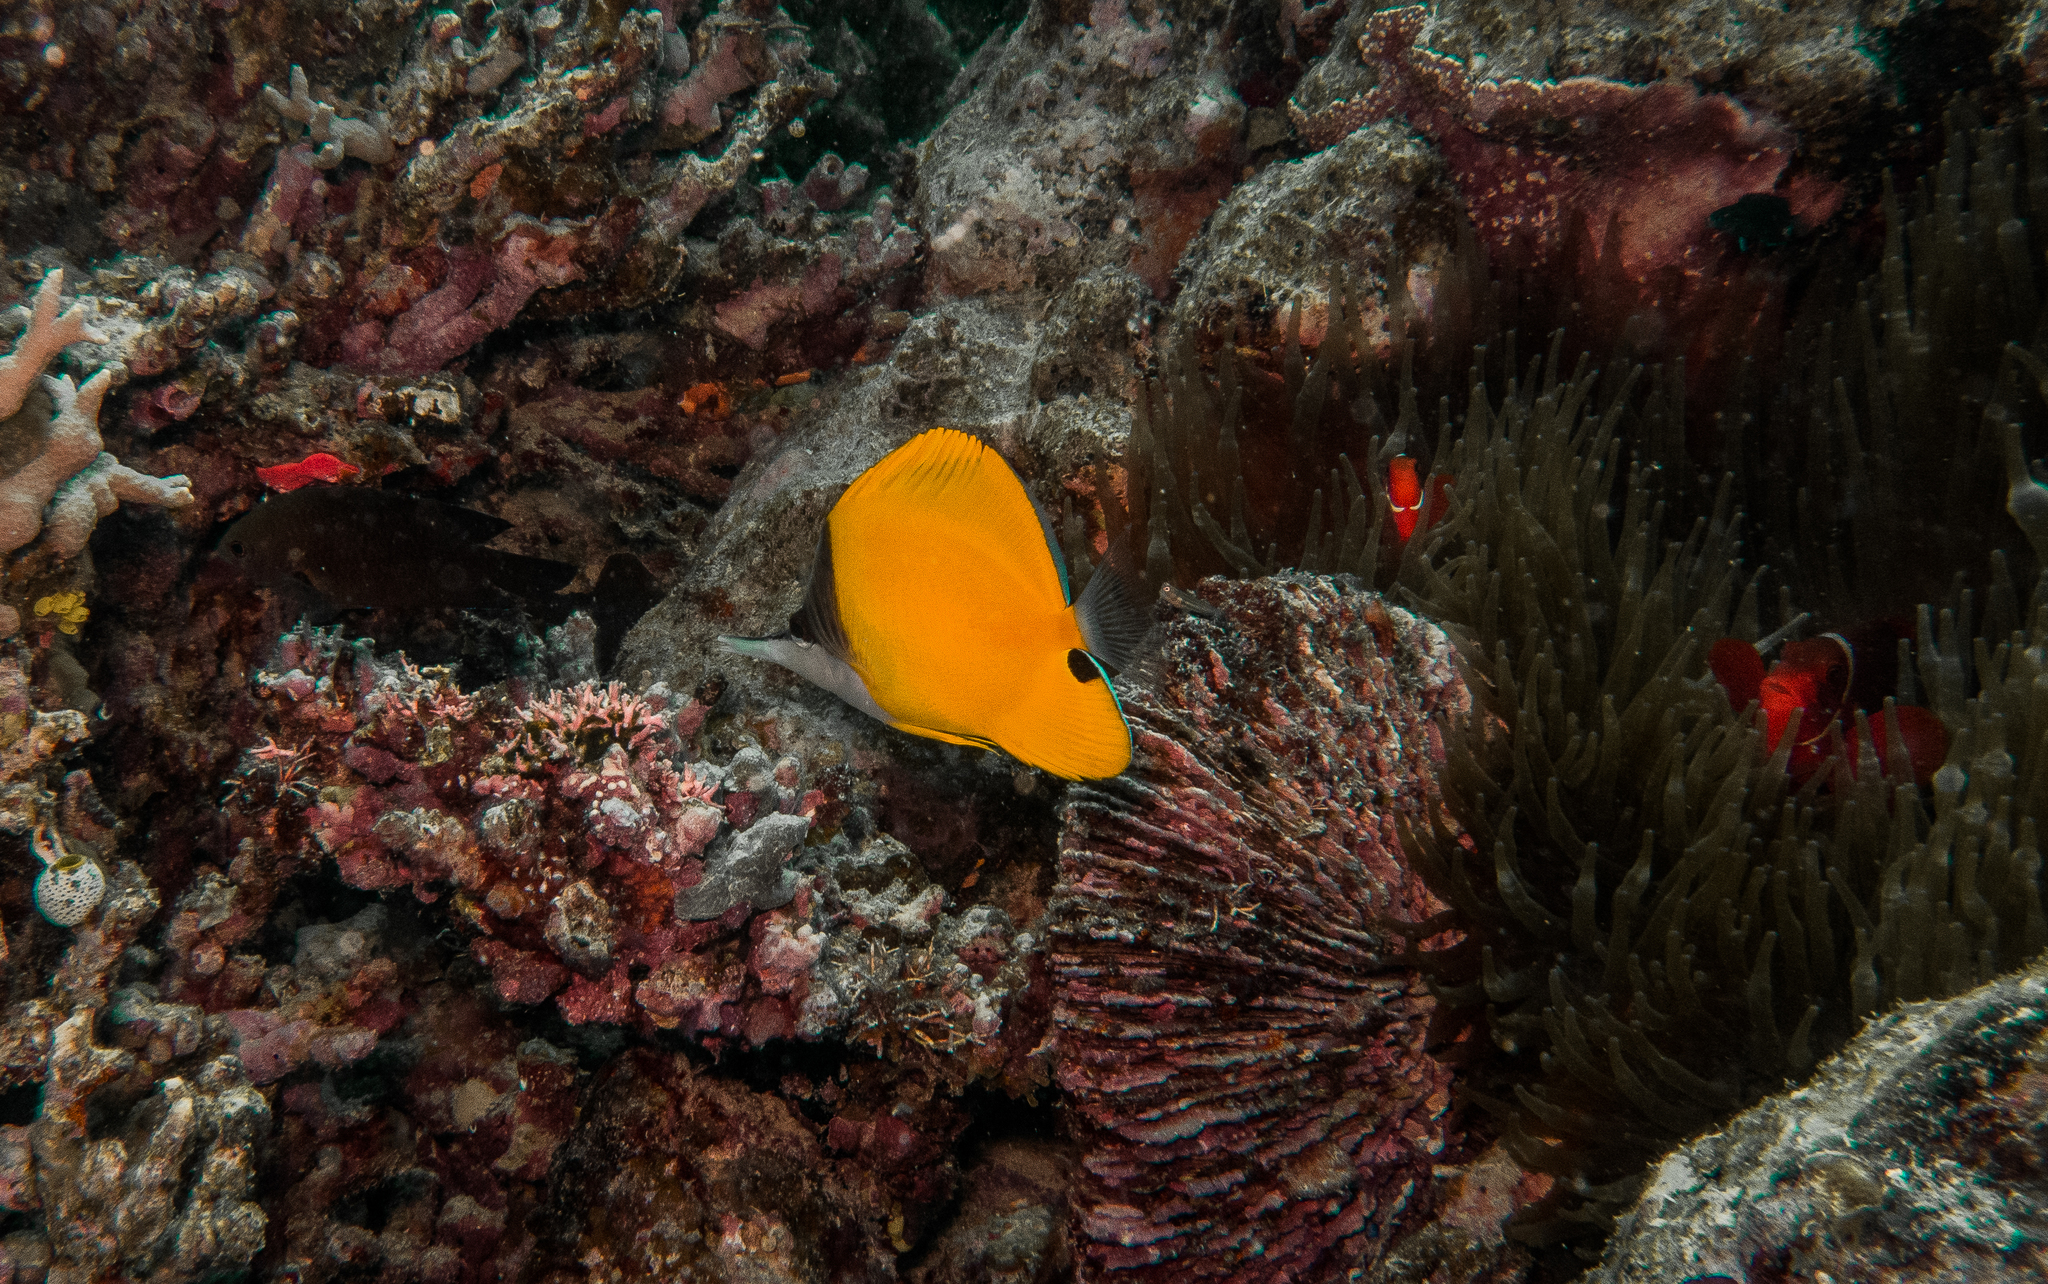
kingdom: Animalia
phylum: Chordata
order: Perciformes
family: Chaetodontidae
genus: Forcipiger
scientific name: Forcipiger flavissimus
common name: Forcepsfish
